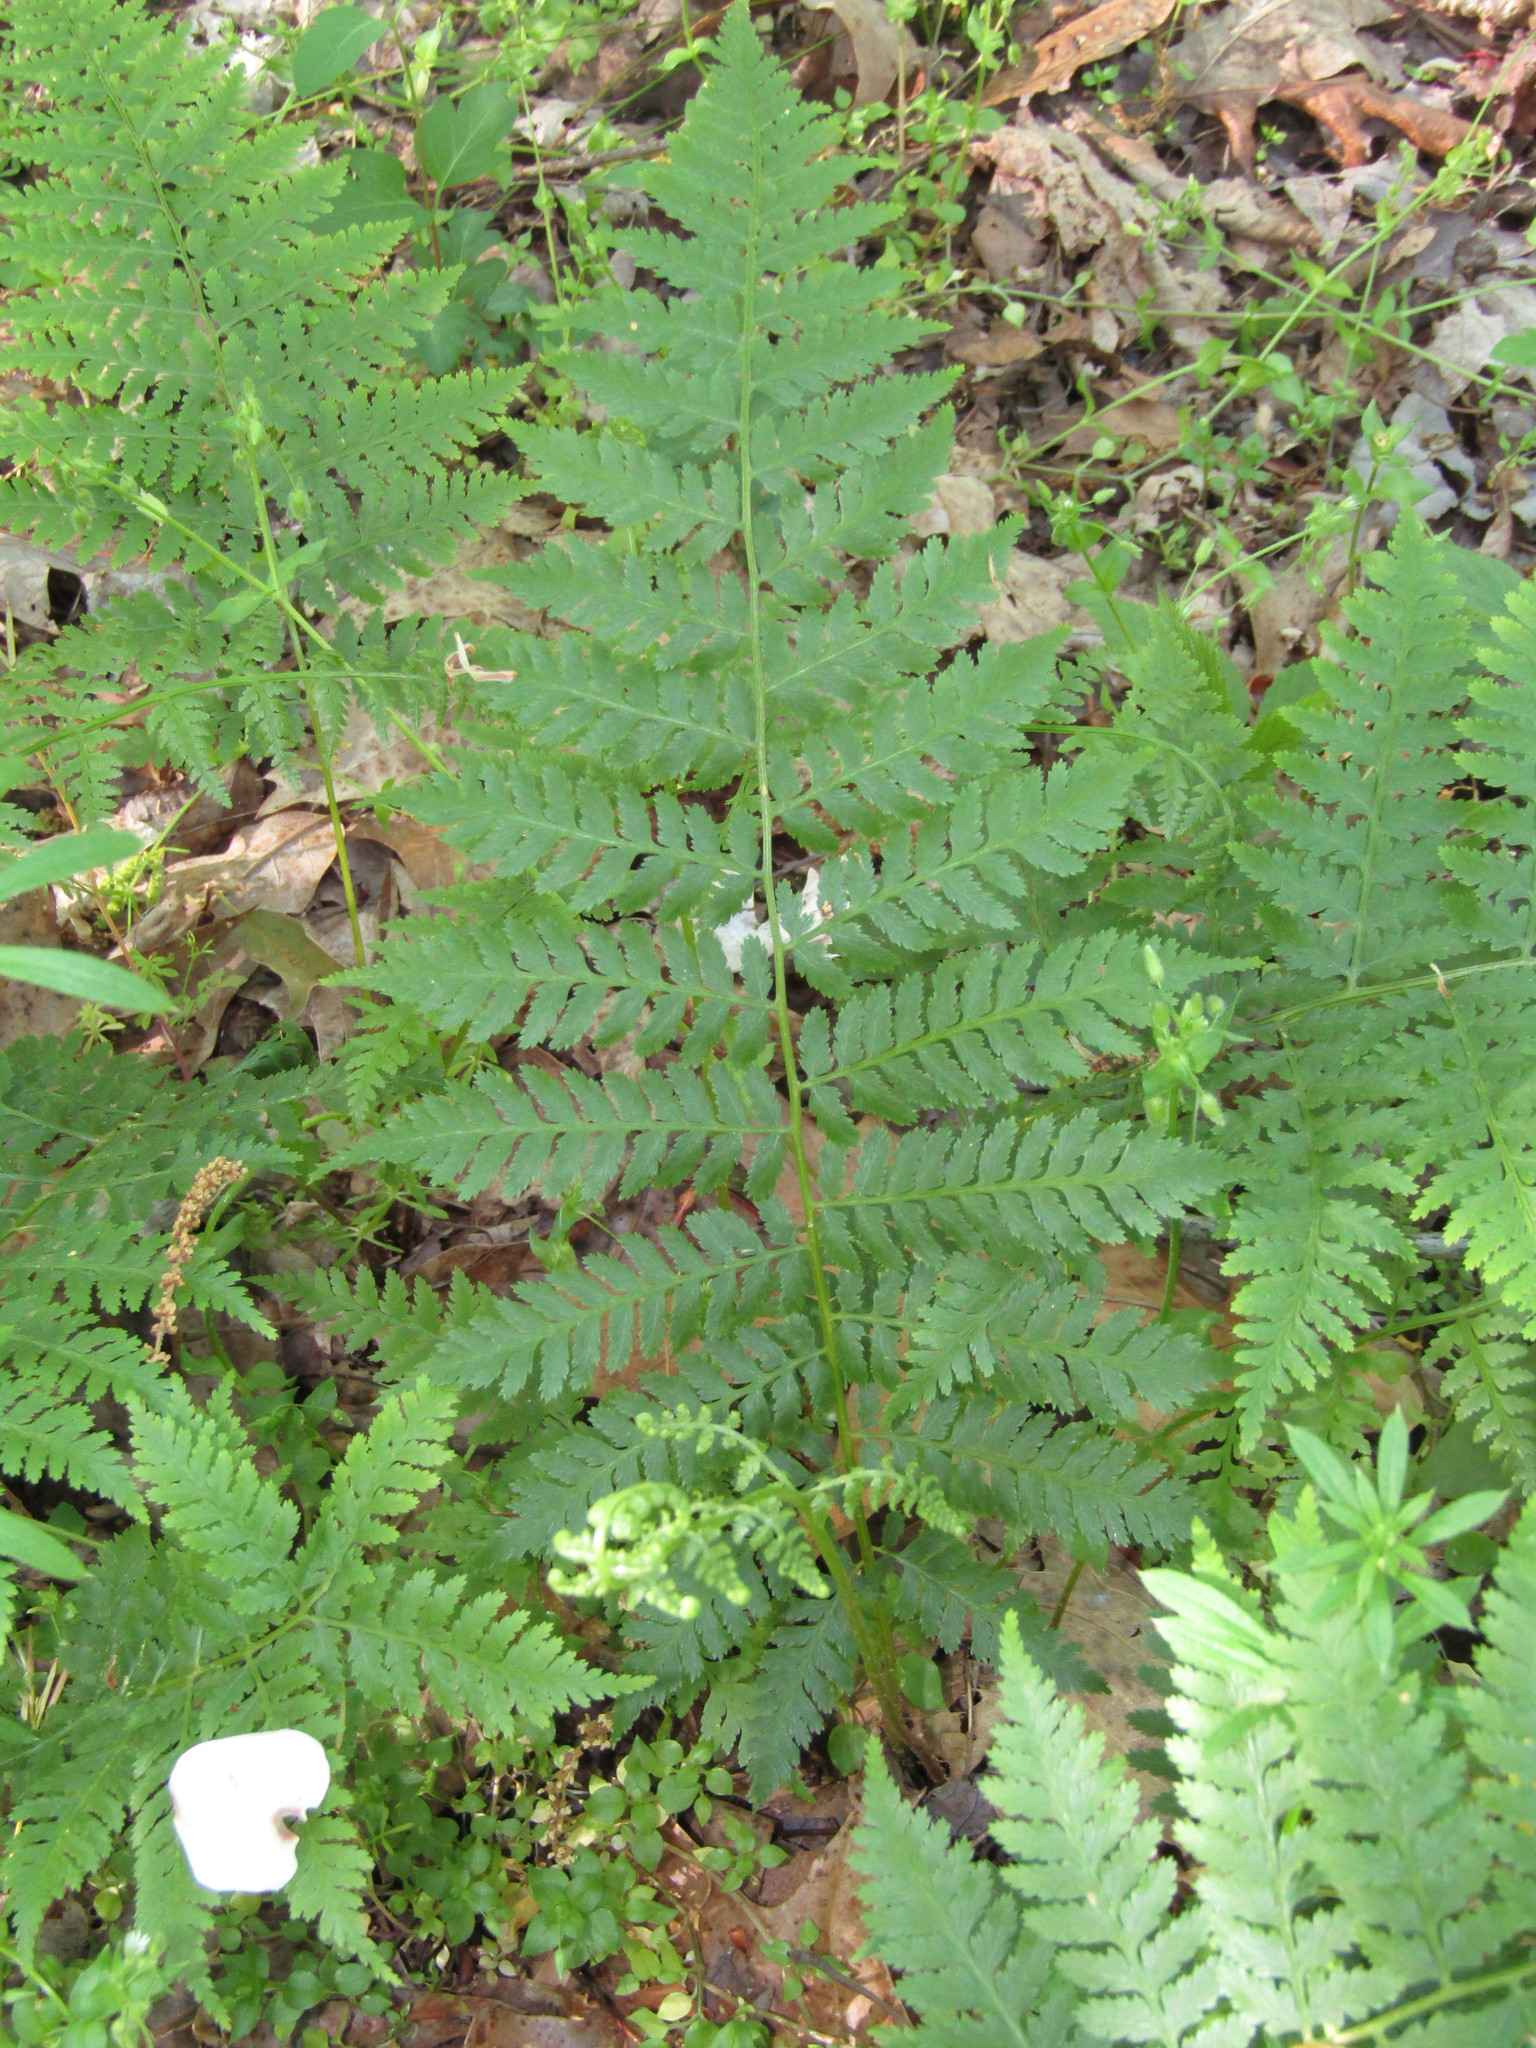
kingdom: Plantae
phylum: Tracheophyta
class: Polypodiopsida
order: Polypodiales
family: Athyriaceae
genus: Athyrium
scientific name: Athyrium asplenioides
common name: Southern lady fern
